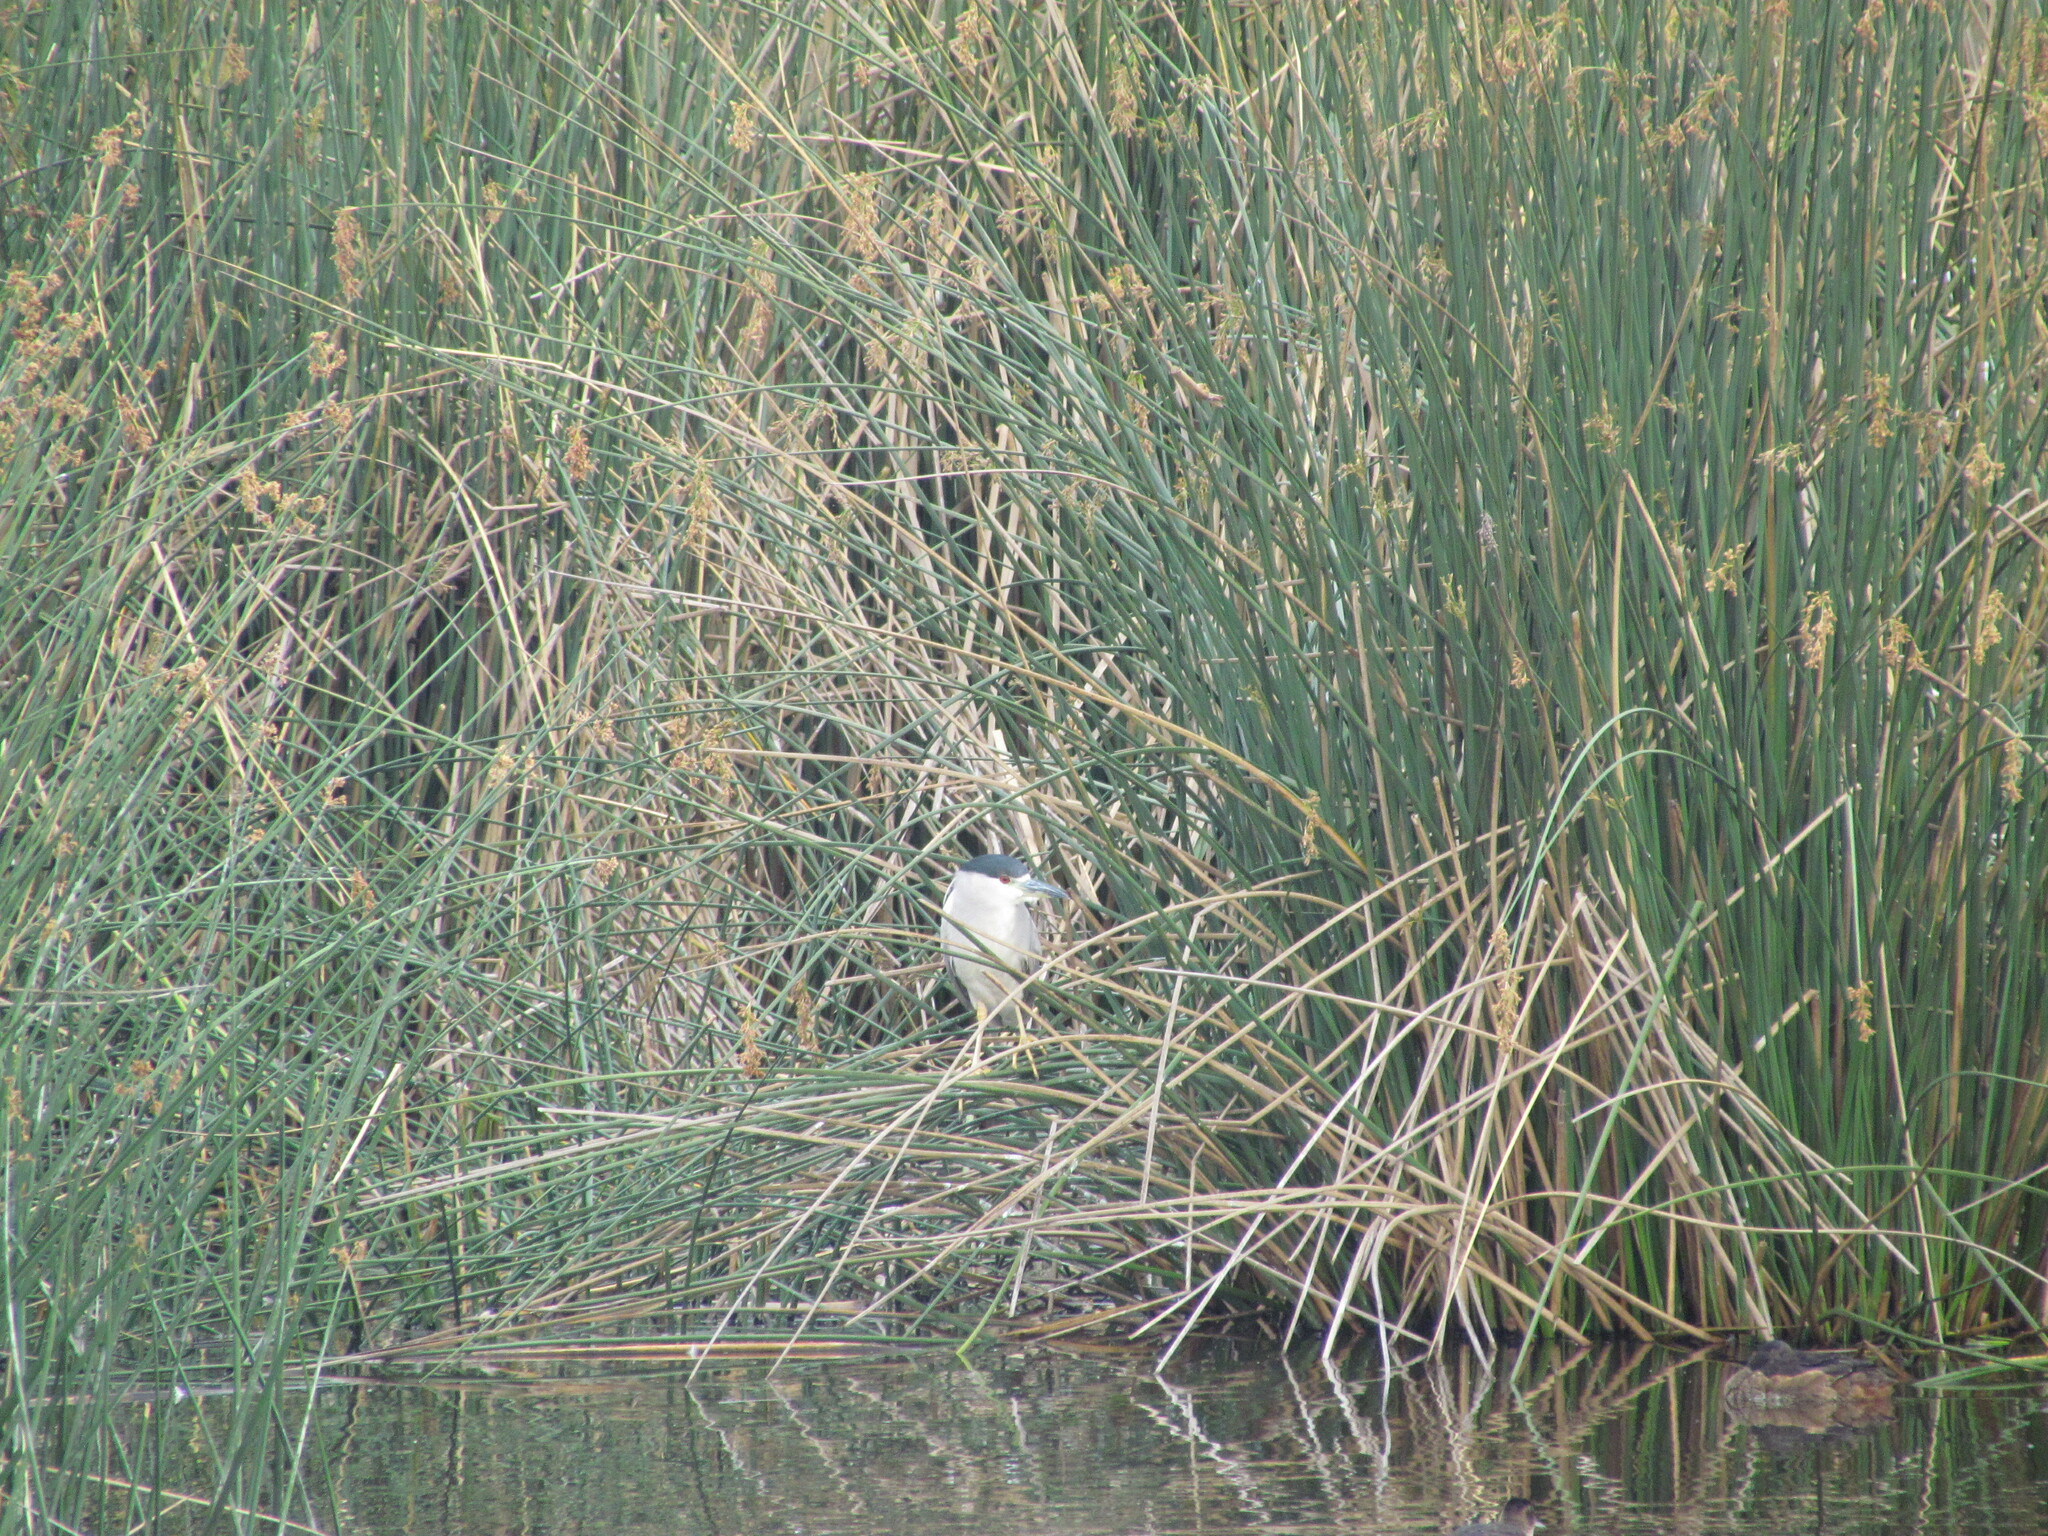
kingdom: Animalia
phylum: Chordata
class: Aves
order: Pelecaniformes
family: Ardeidae
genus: Nycticorax
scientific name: Nycticorax nycticorax
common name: Black-crowned night heron
